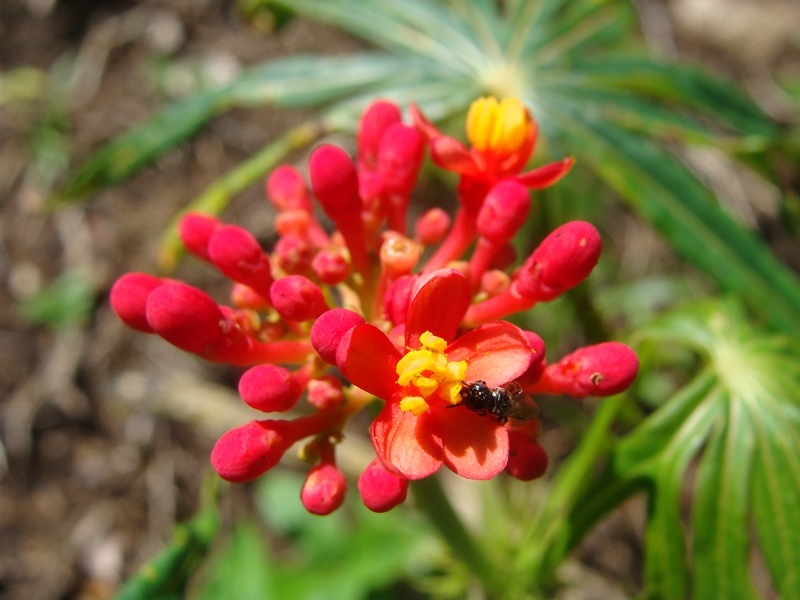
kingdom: Plantae
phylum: Tracheophyta
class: Magnoliopsida
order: Malpighiales
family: Euphorbiaceae
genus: Jatropha
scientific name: Jatropha multifida
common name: Coralbush
